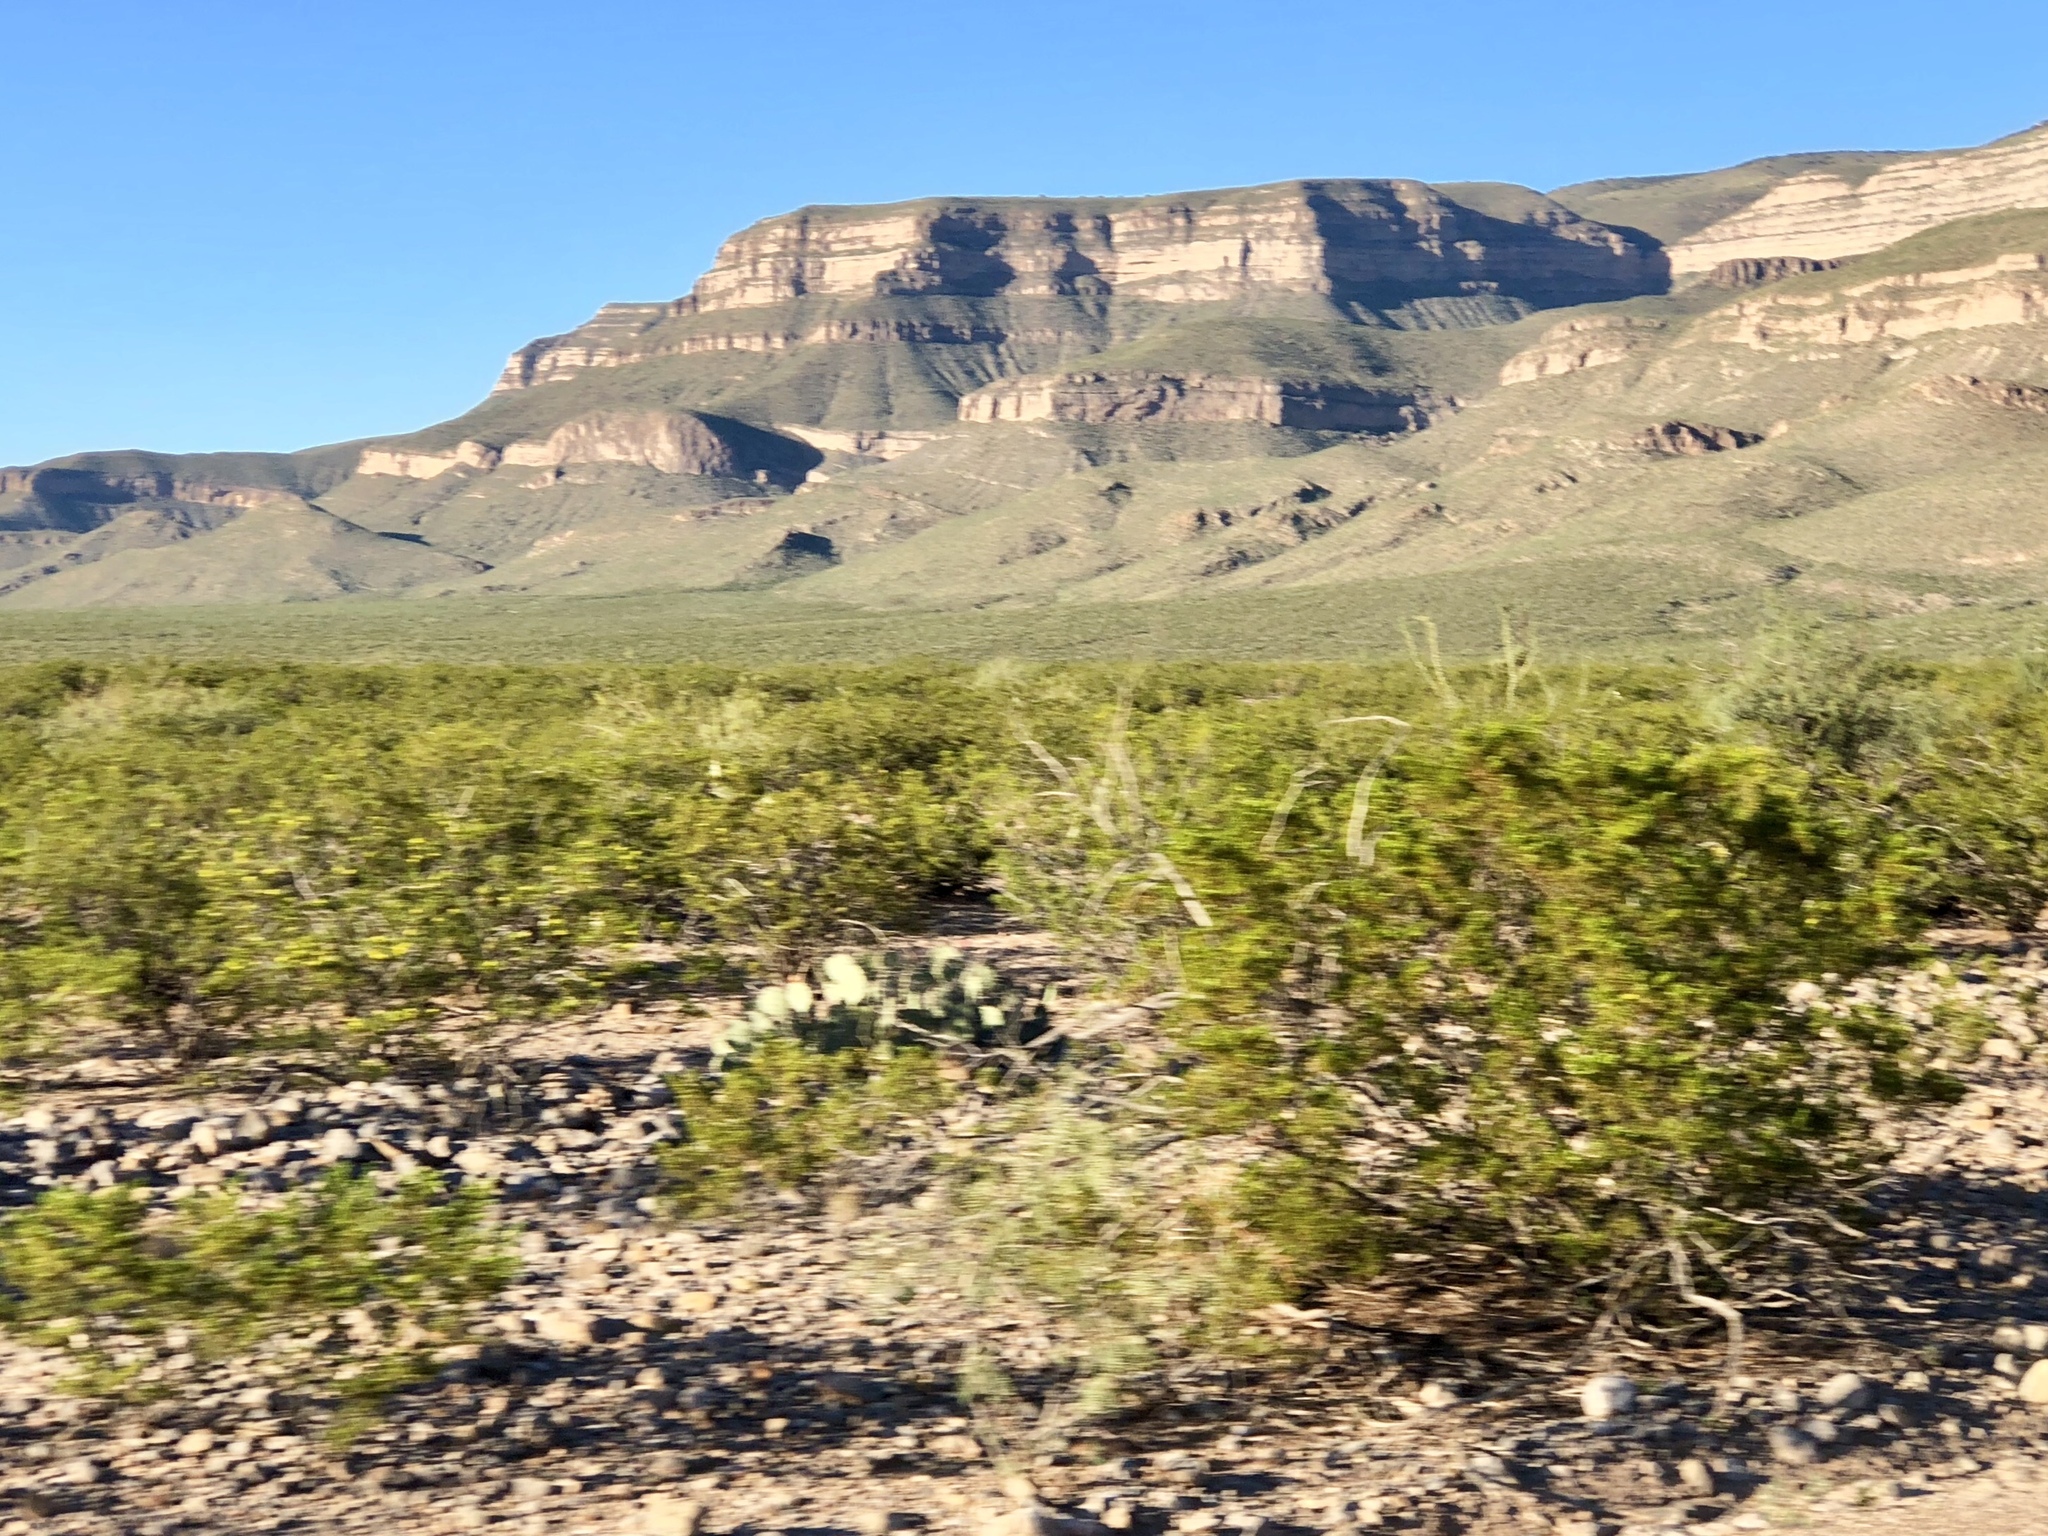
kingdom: Plantae
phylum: Tracheophyta
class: Magnoliopsida
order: Zygophyllales
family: Zygophyllaceae
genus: Larrea
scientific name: Larrea tridentata
